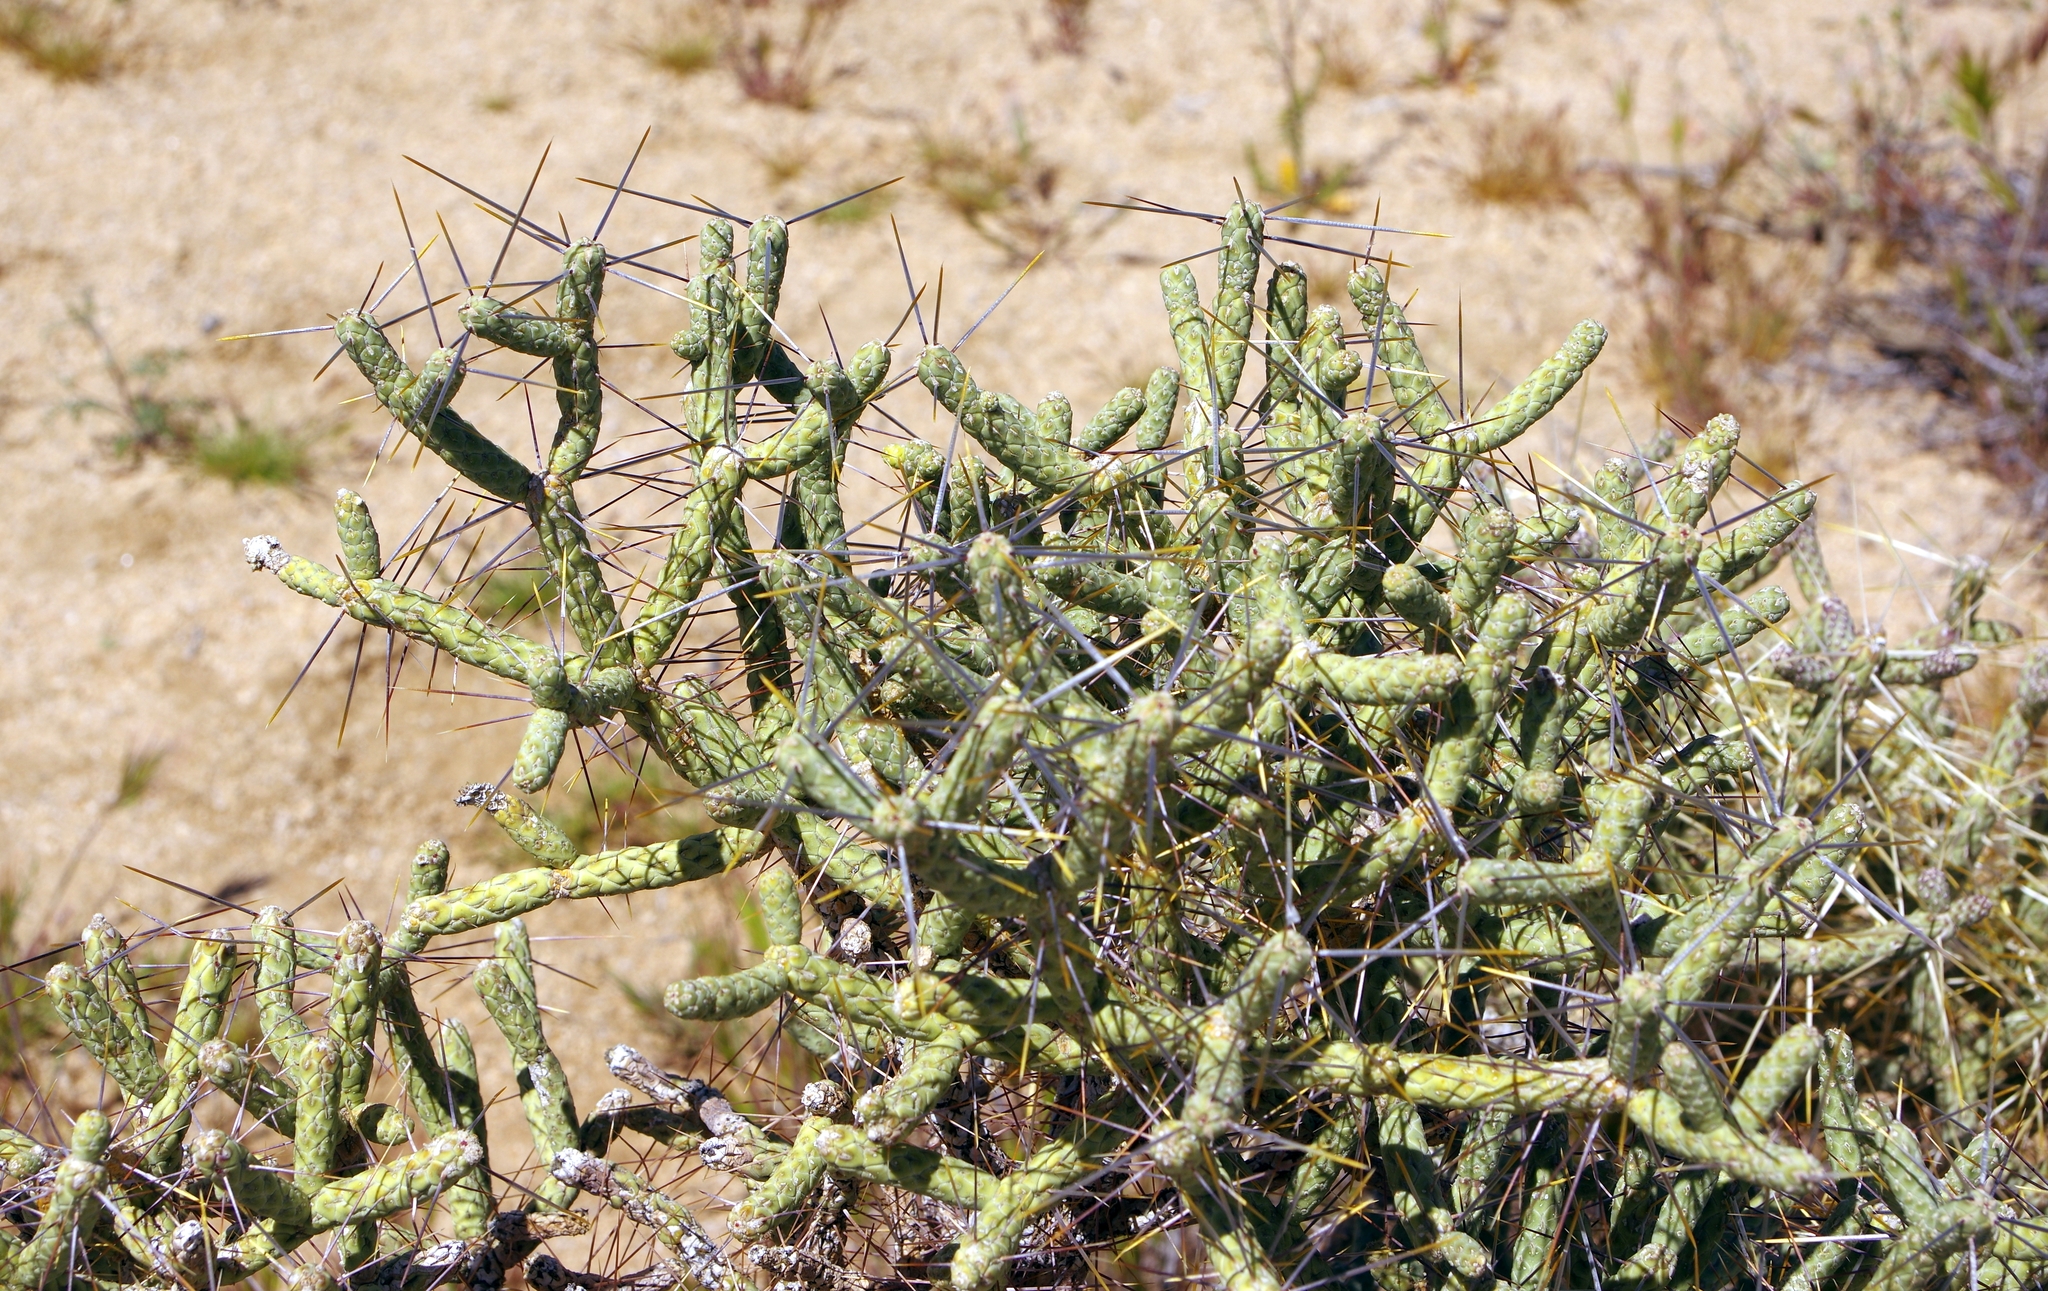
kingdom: Plantae
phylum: Tracheophyta
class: Magnoliopsida
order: Caryophyllales
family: Cactaceae
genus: Cylindropuntia
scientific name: Cylindropuntia ramosissima
